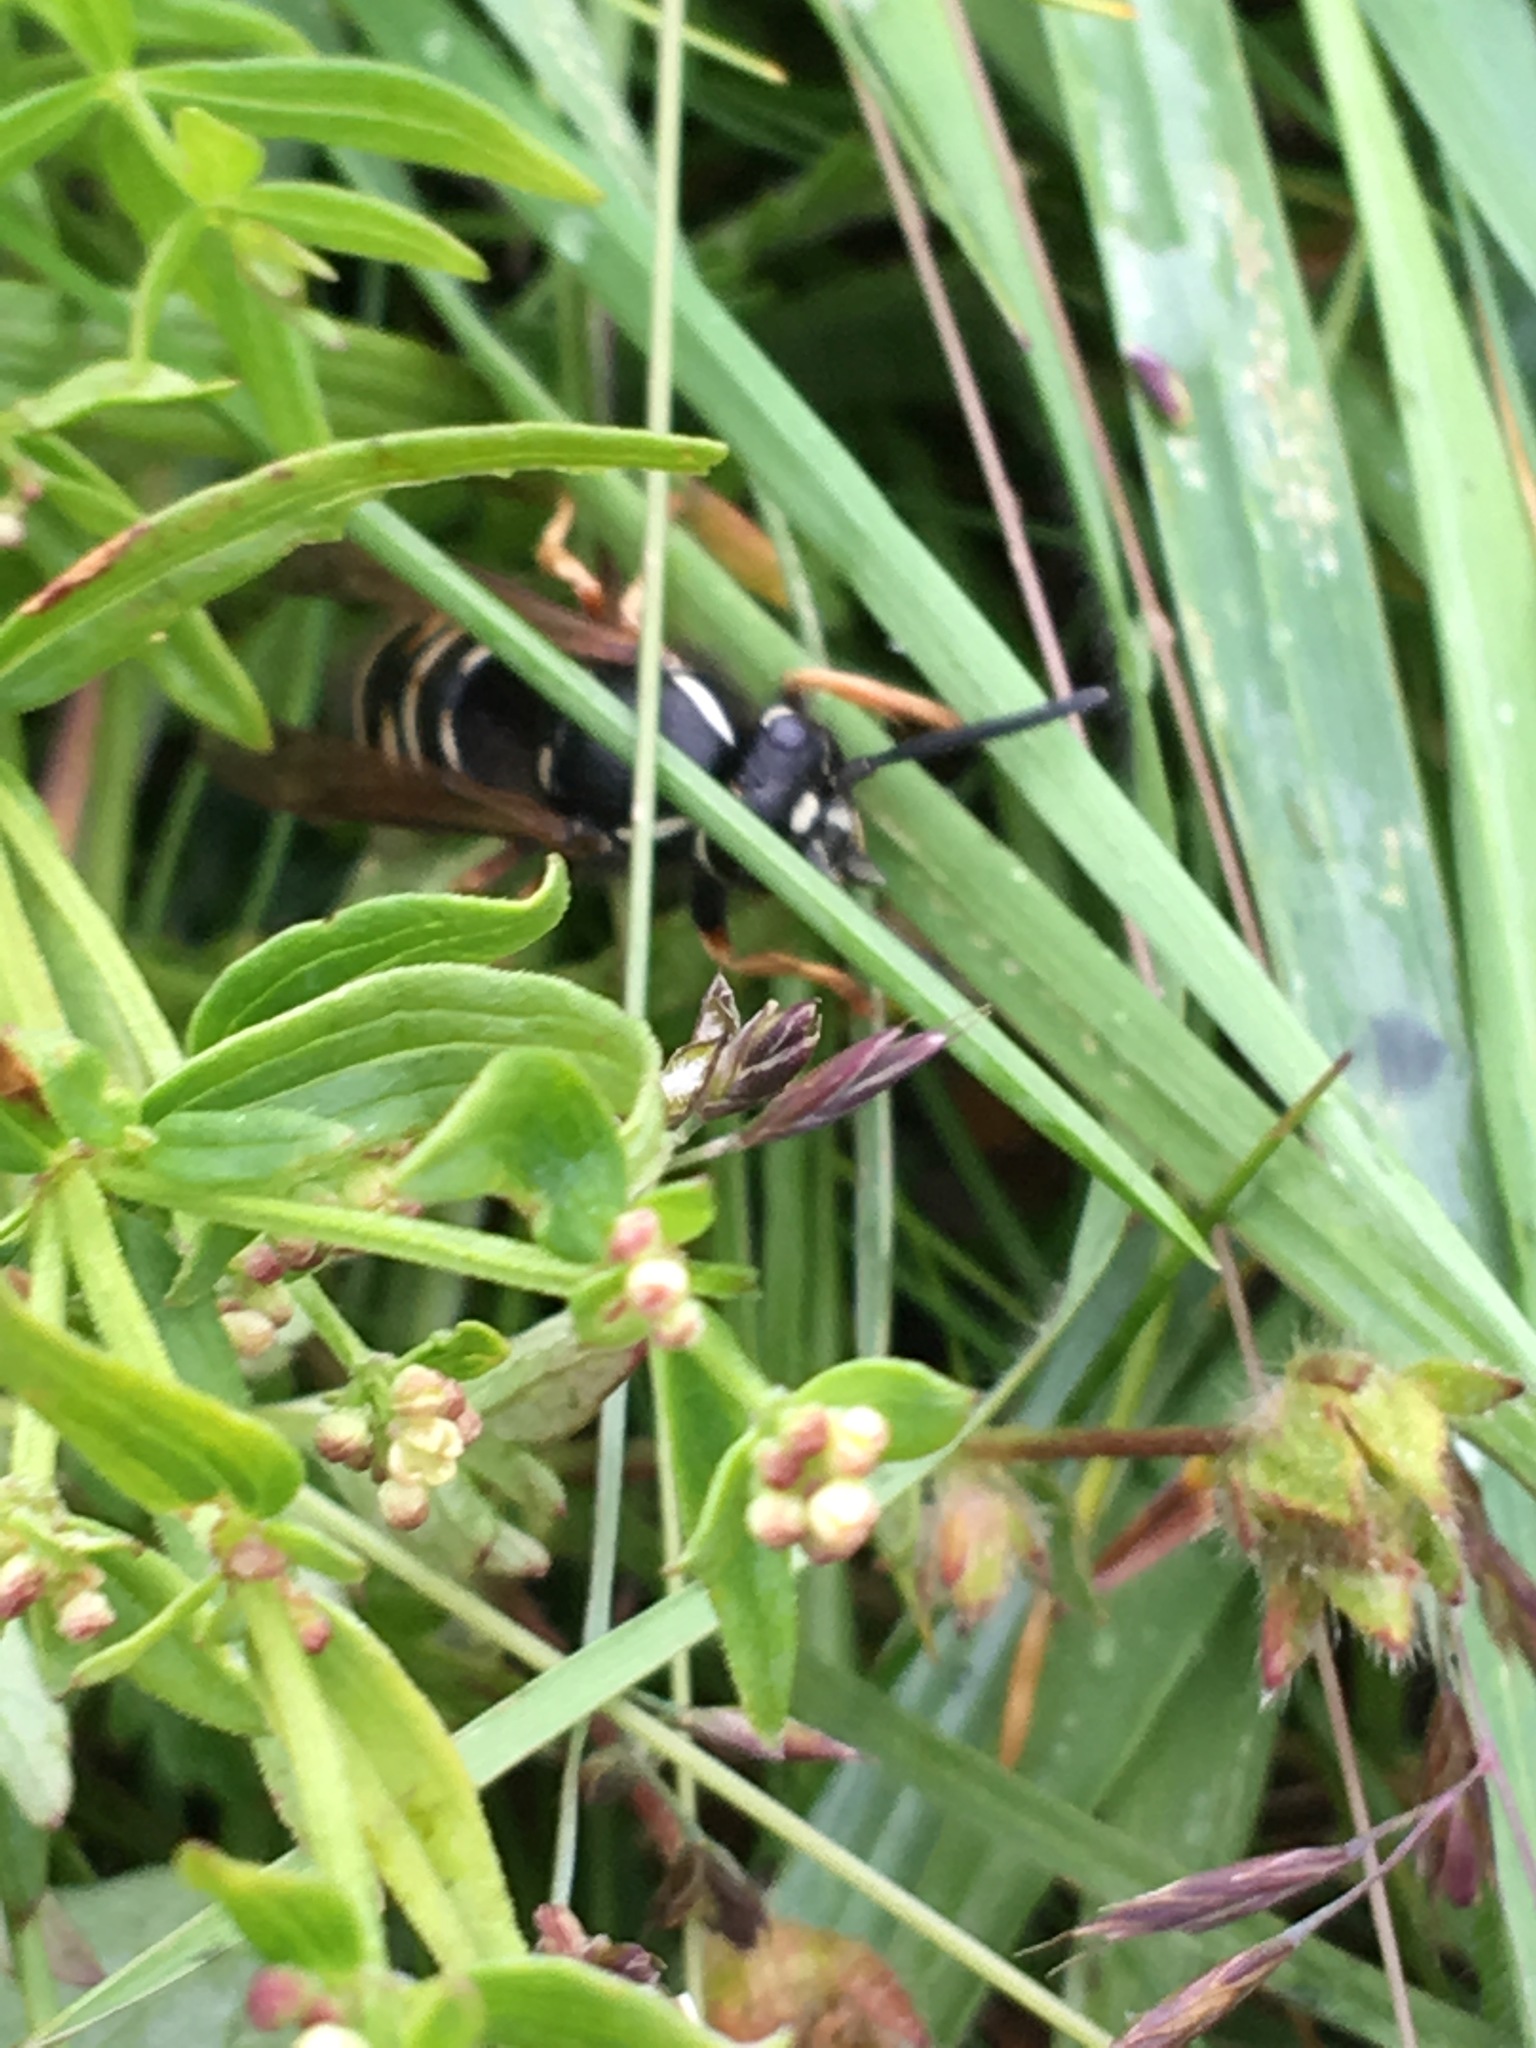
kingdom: Animalia
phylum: Arthropoda
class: Insecta
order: Hymenoptera
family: Vespidae
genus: Vespula
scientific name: Vespula rufa
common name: Red wasp
